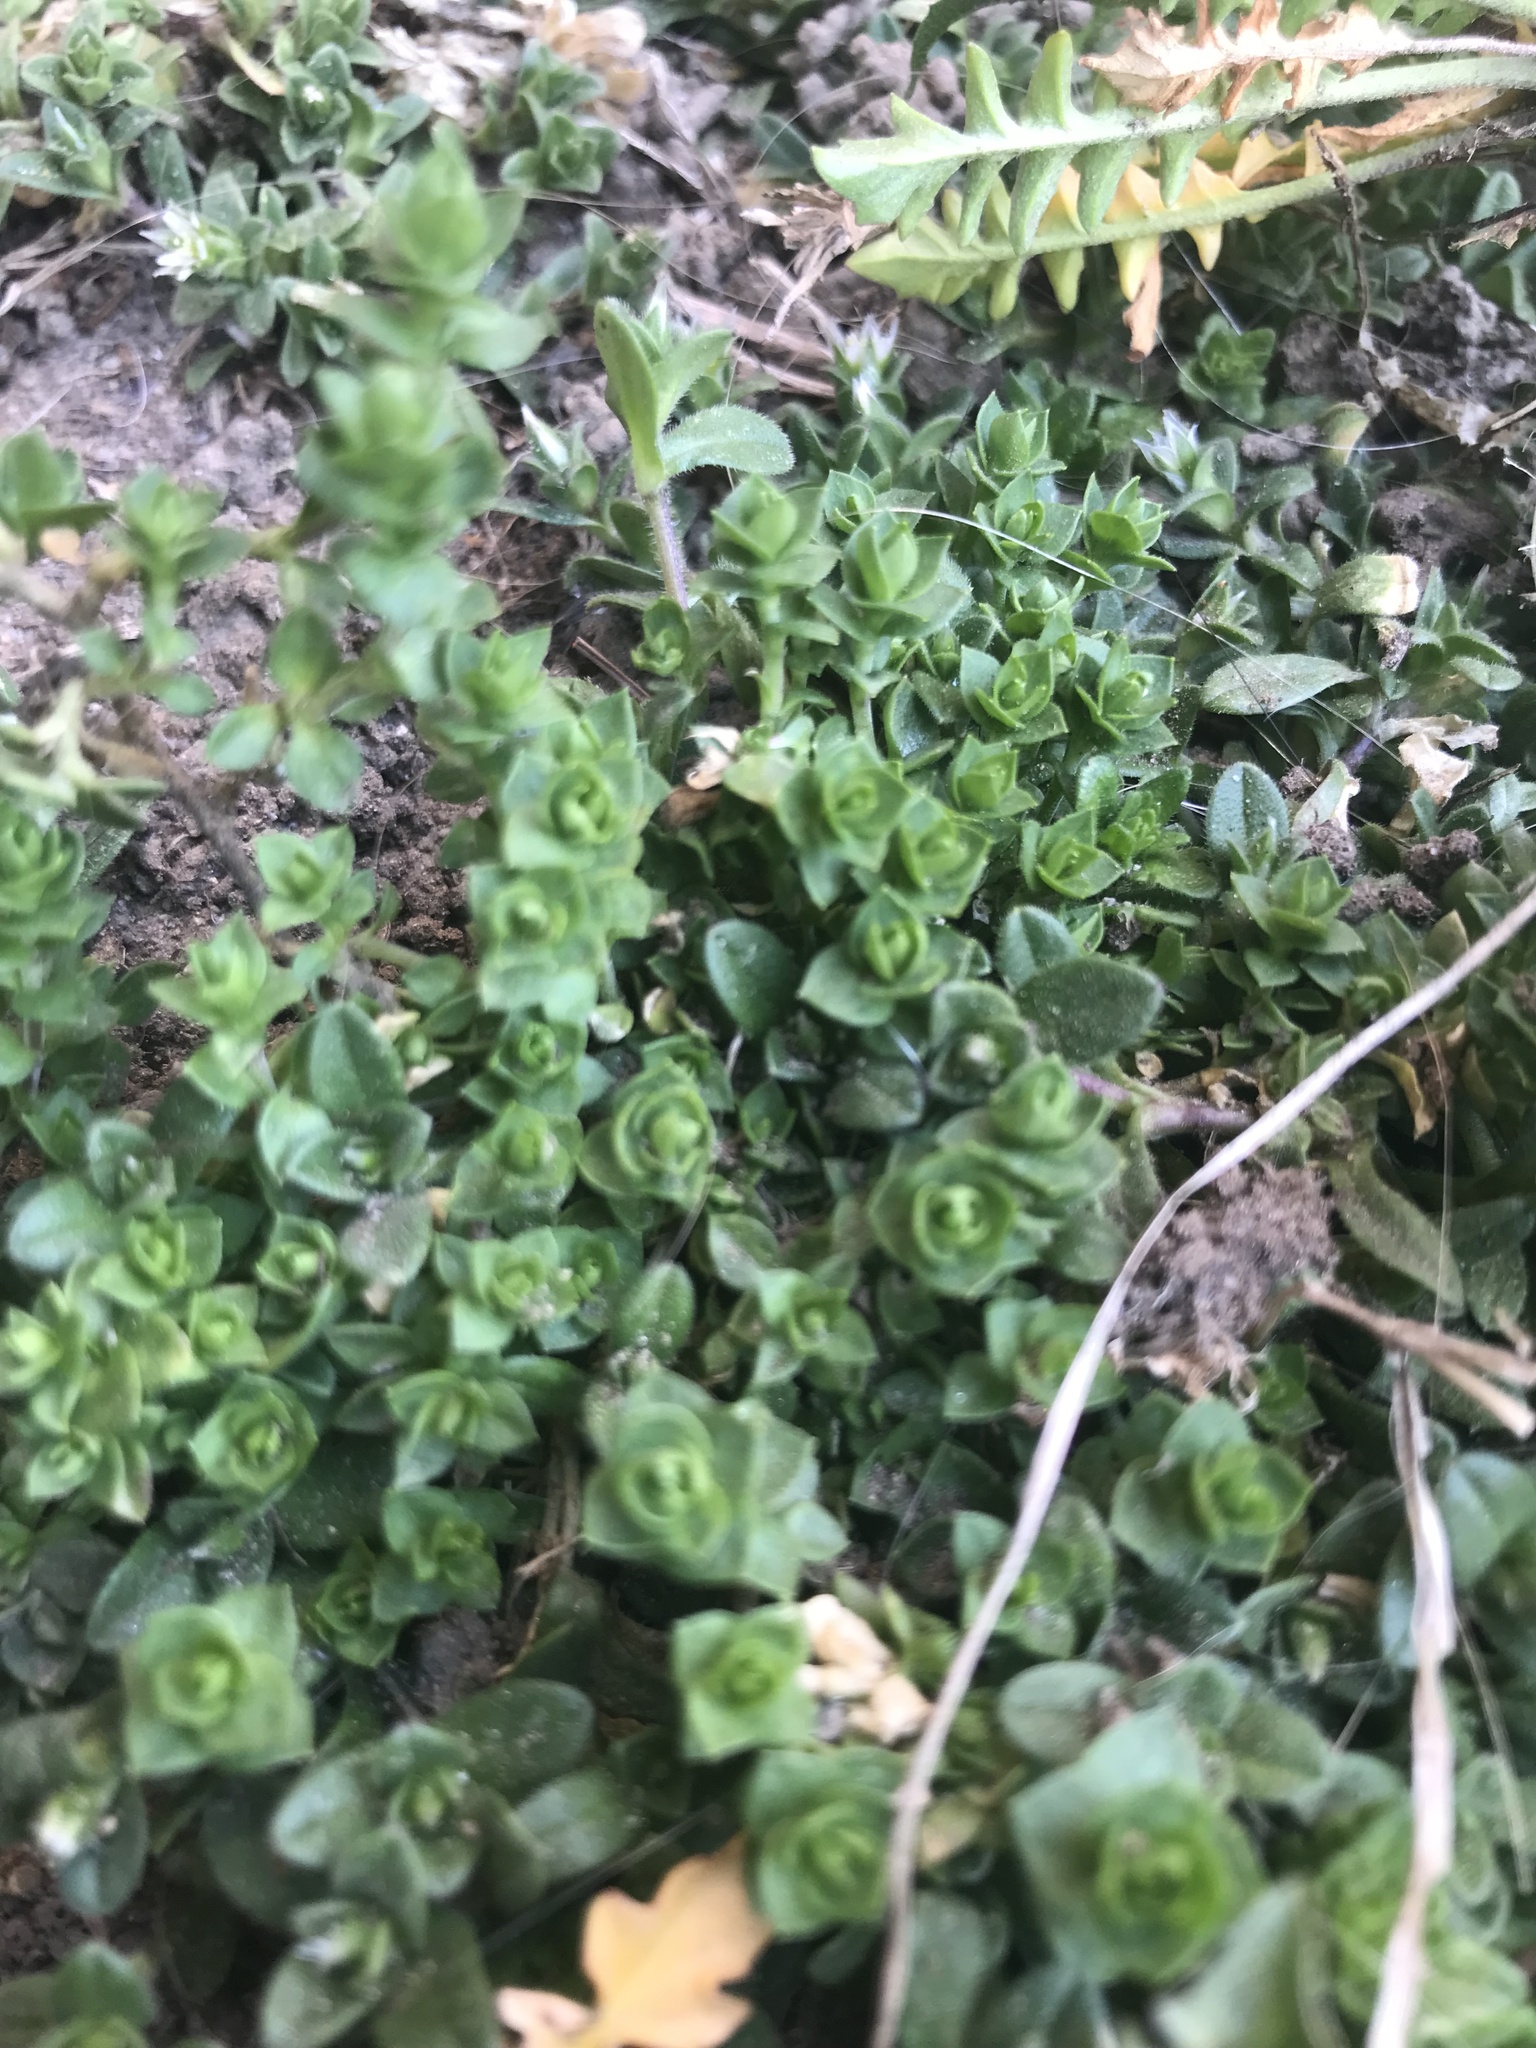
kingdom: Plantae
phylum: Tracheophyta
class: Magnoliopsida
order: Caryophyllales
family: Caryophyllaceae
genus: Arenaria
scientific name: Arenaria serpyllifolia
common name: Thyme-leaved sandwort
